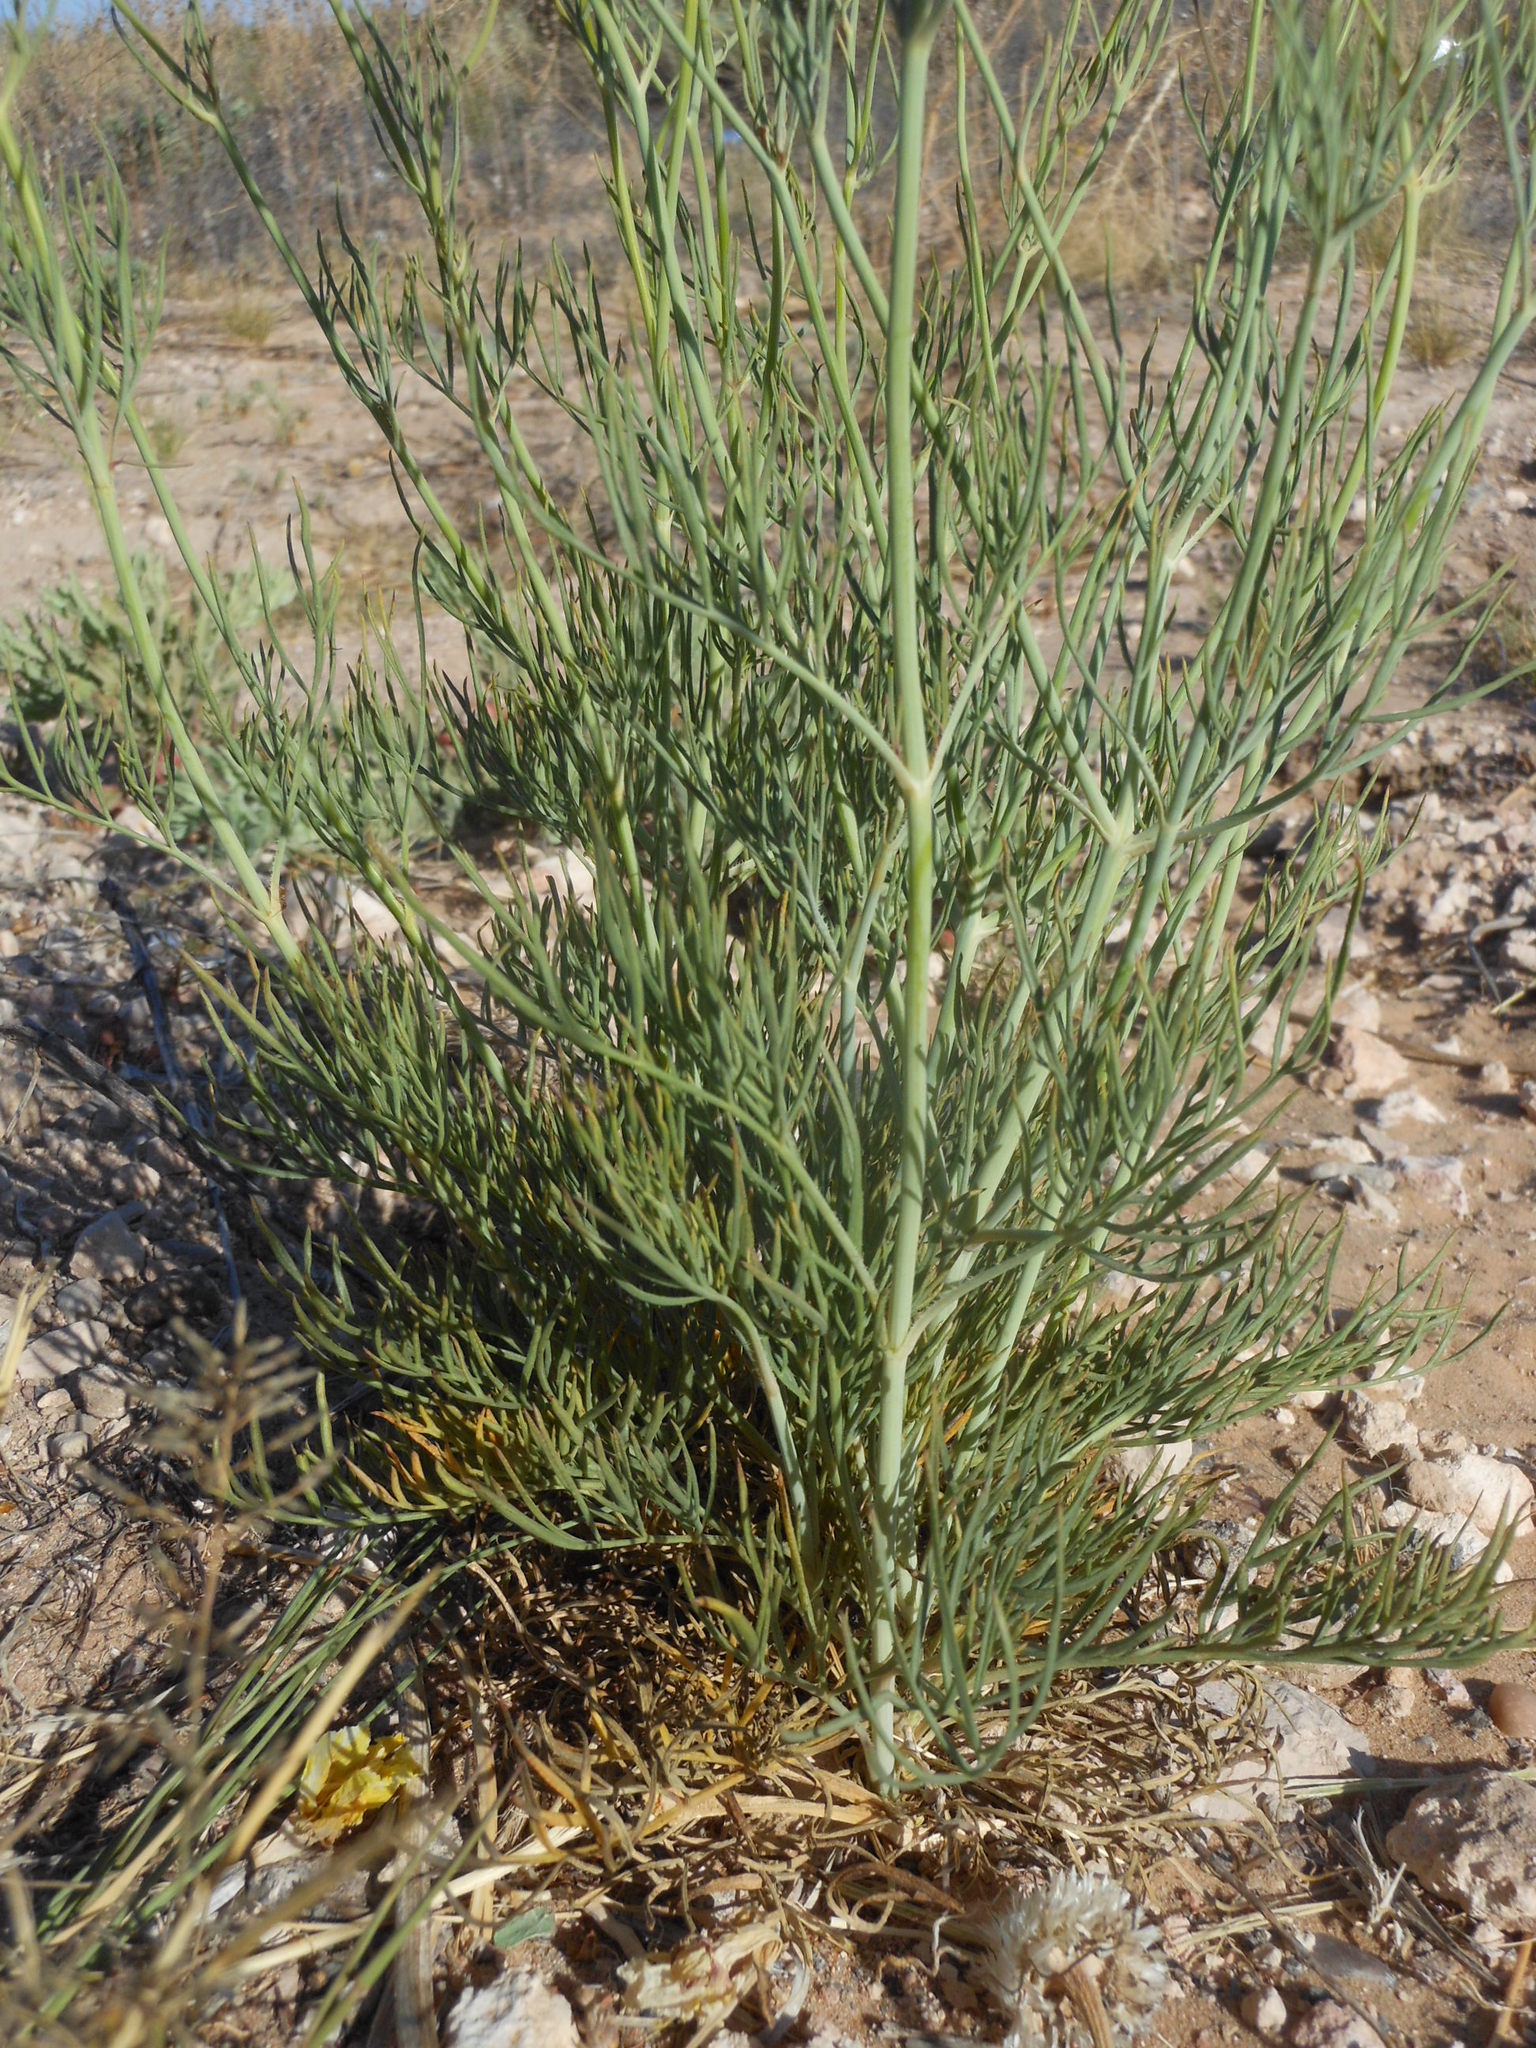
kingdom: Plantae
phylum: Tracheophyta
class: Magnoliopsida
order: Asterales
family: Asteraceae
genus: Thelesperma
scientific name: Thelesperma megapotamicum
